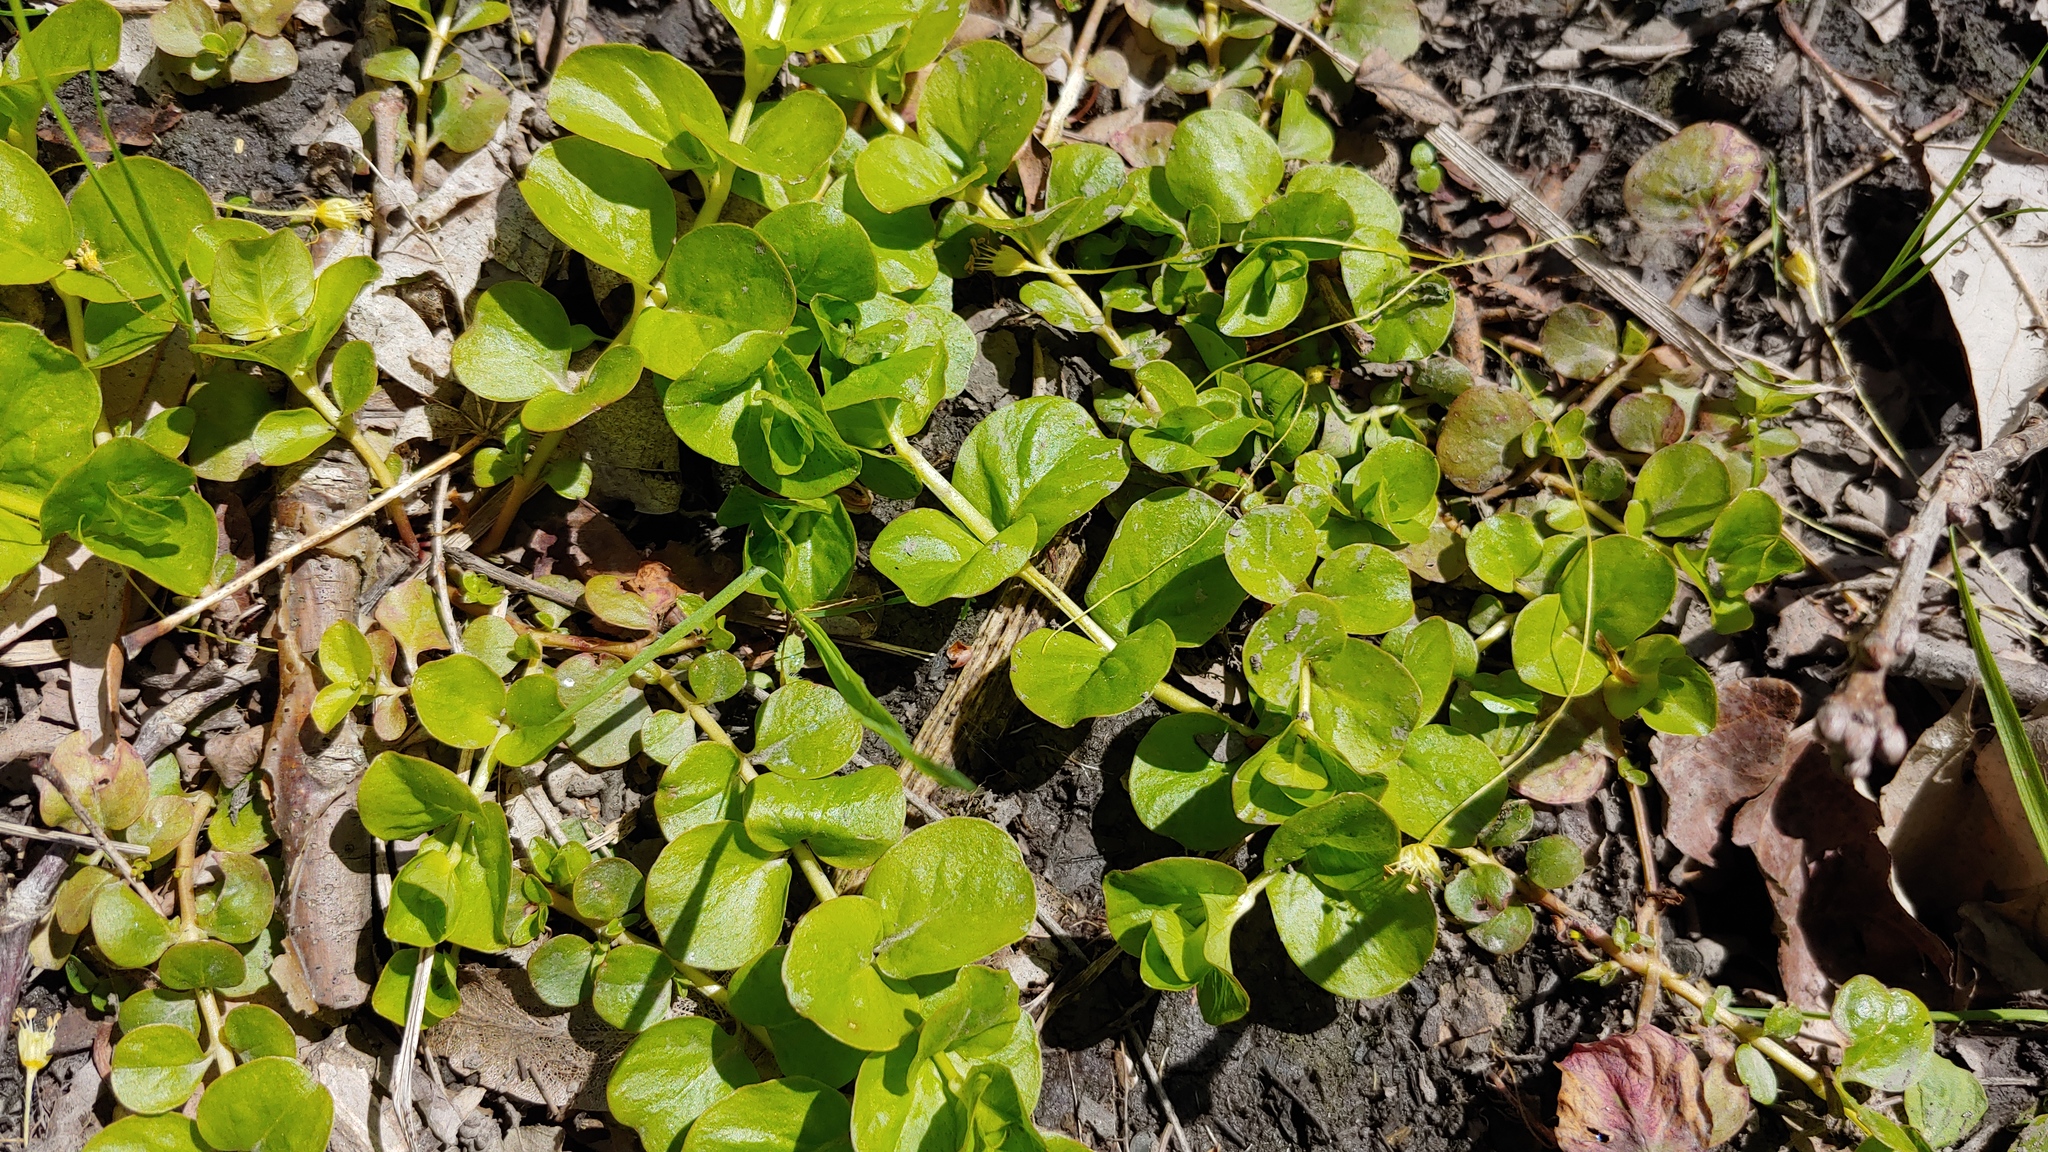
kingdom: Plantae
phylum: Tracheophyta
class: Magnoliopsida
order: Ericales
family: Primulaceae
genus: Lysimachia
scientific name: Lysimachia nummularia
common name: Moneywort
